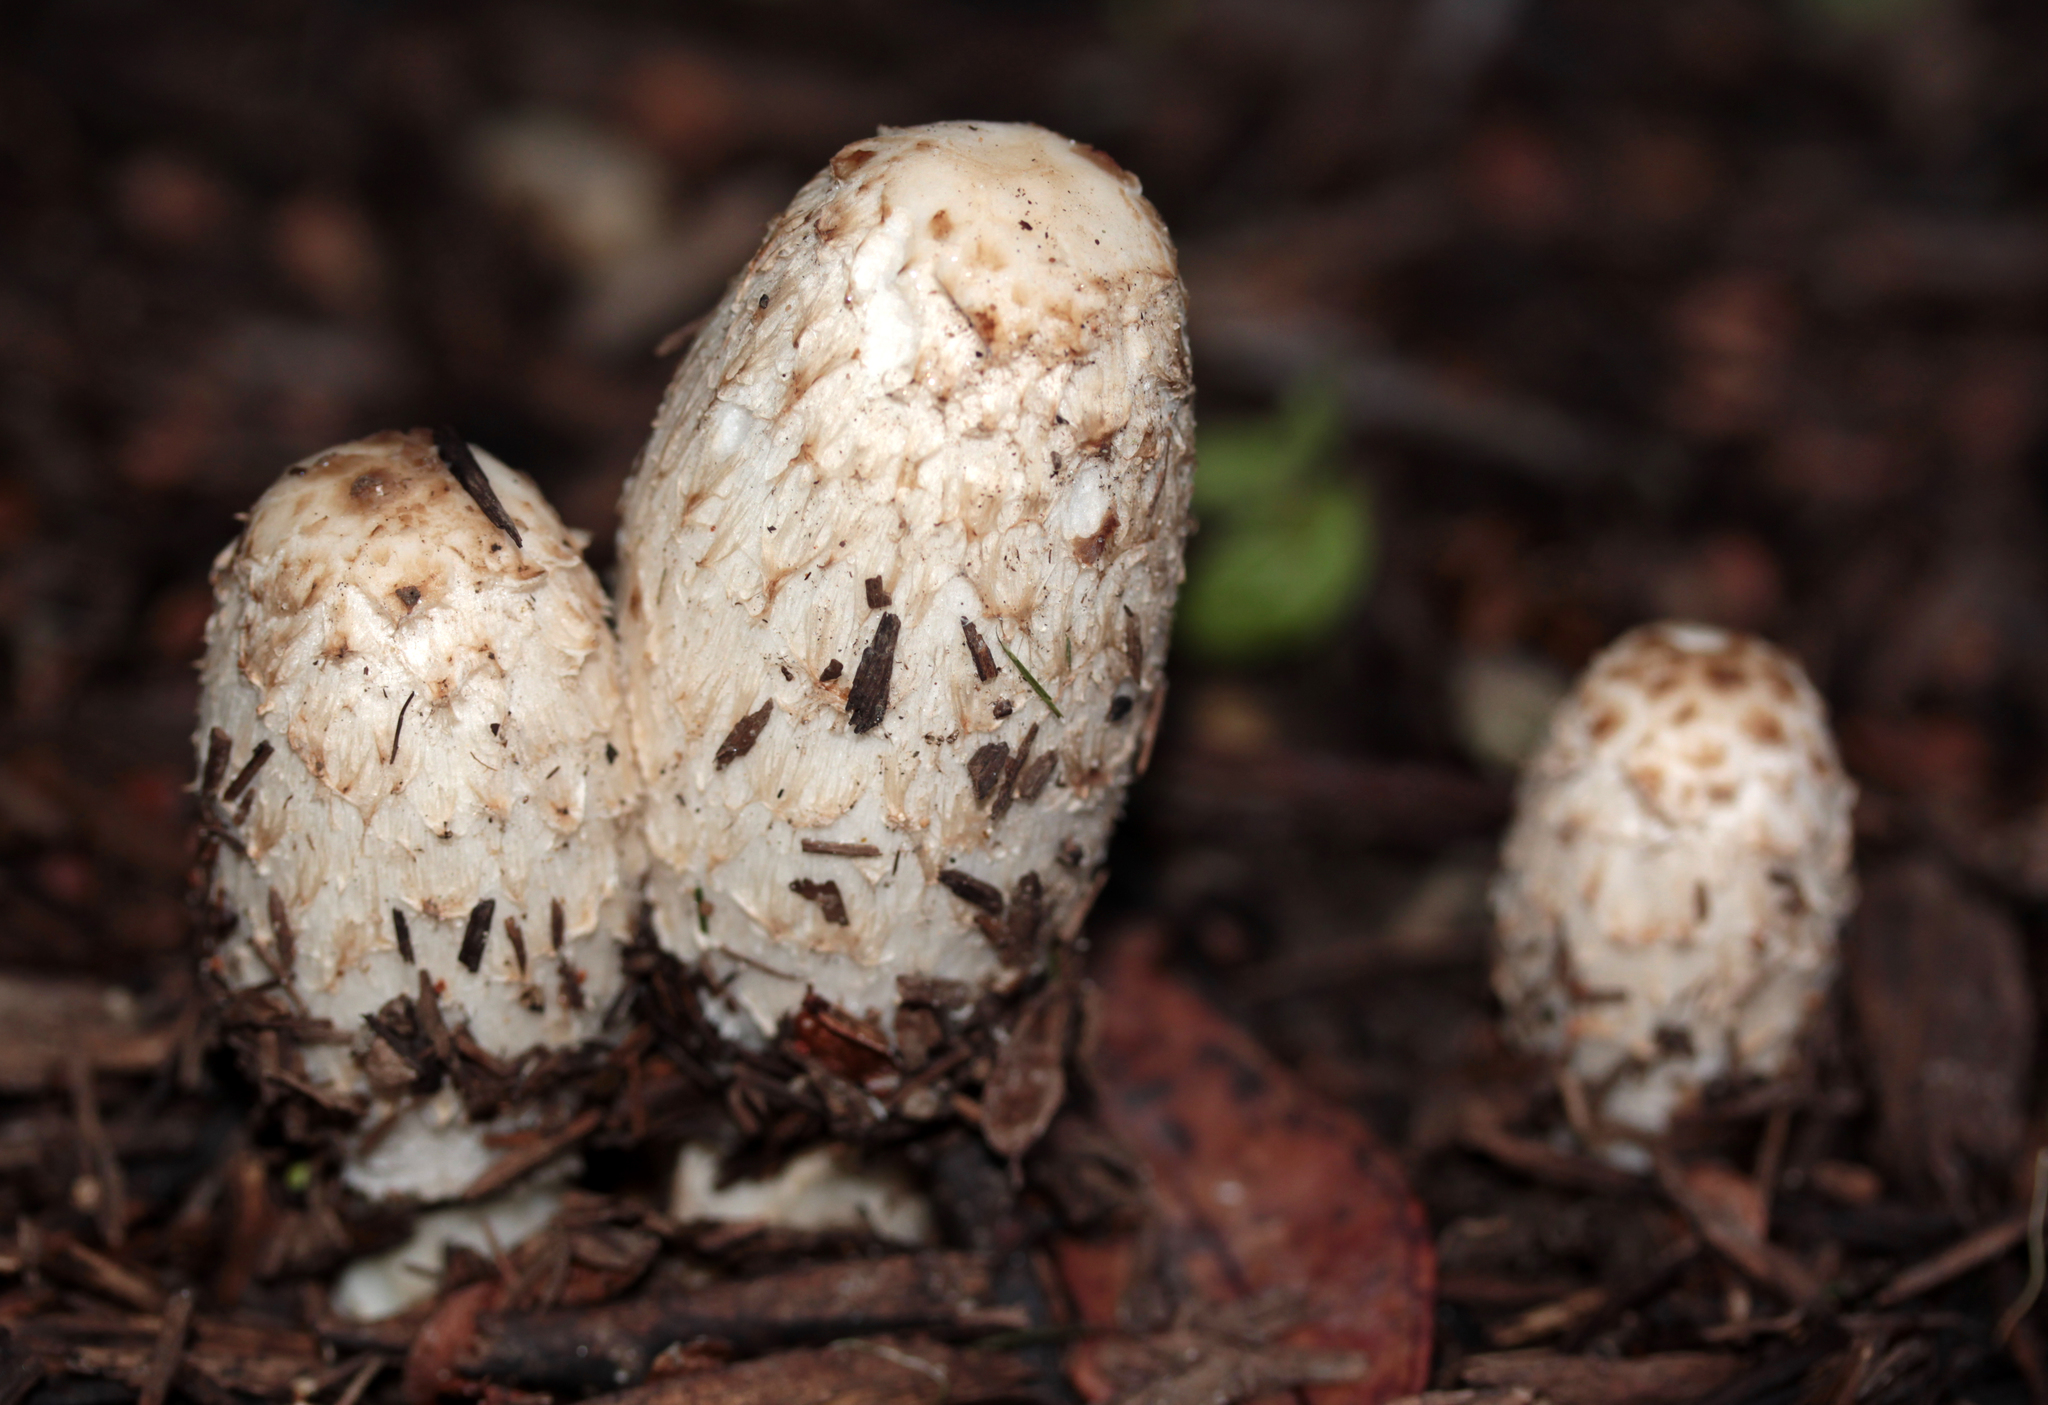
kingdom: Fungi
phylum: Basidiomycota
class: Agaricomycetes
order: Agaricales
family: Agaricaceae
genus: Coprinus
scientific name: Coprinus comatus
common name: Lawyer's wig
